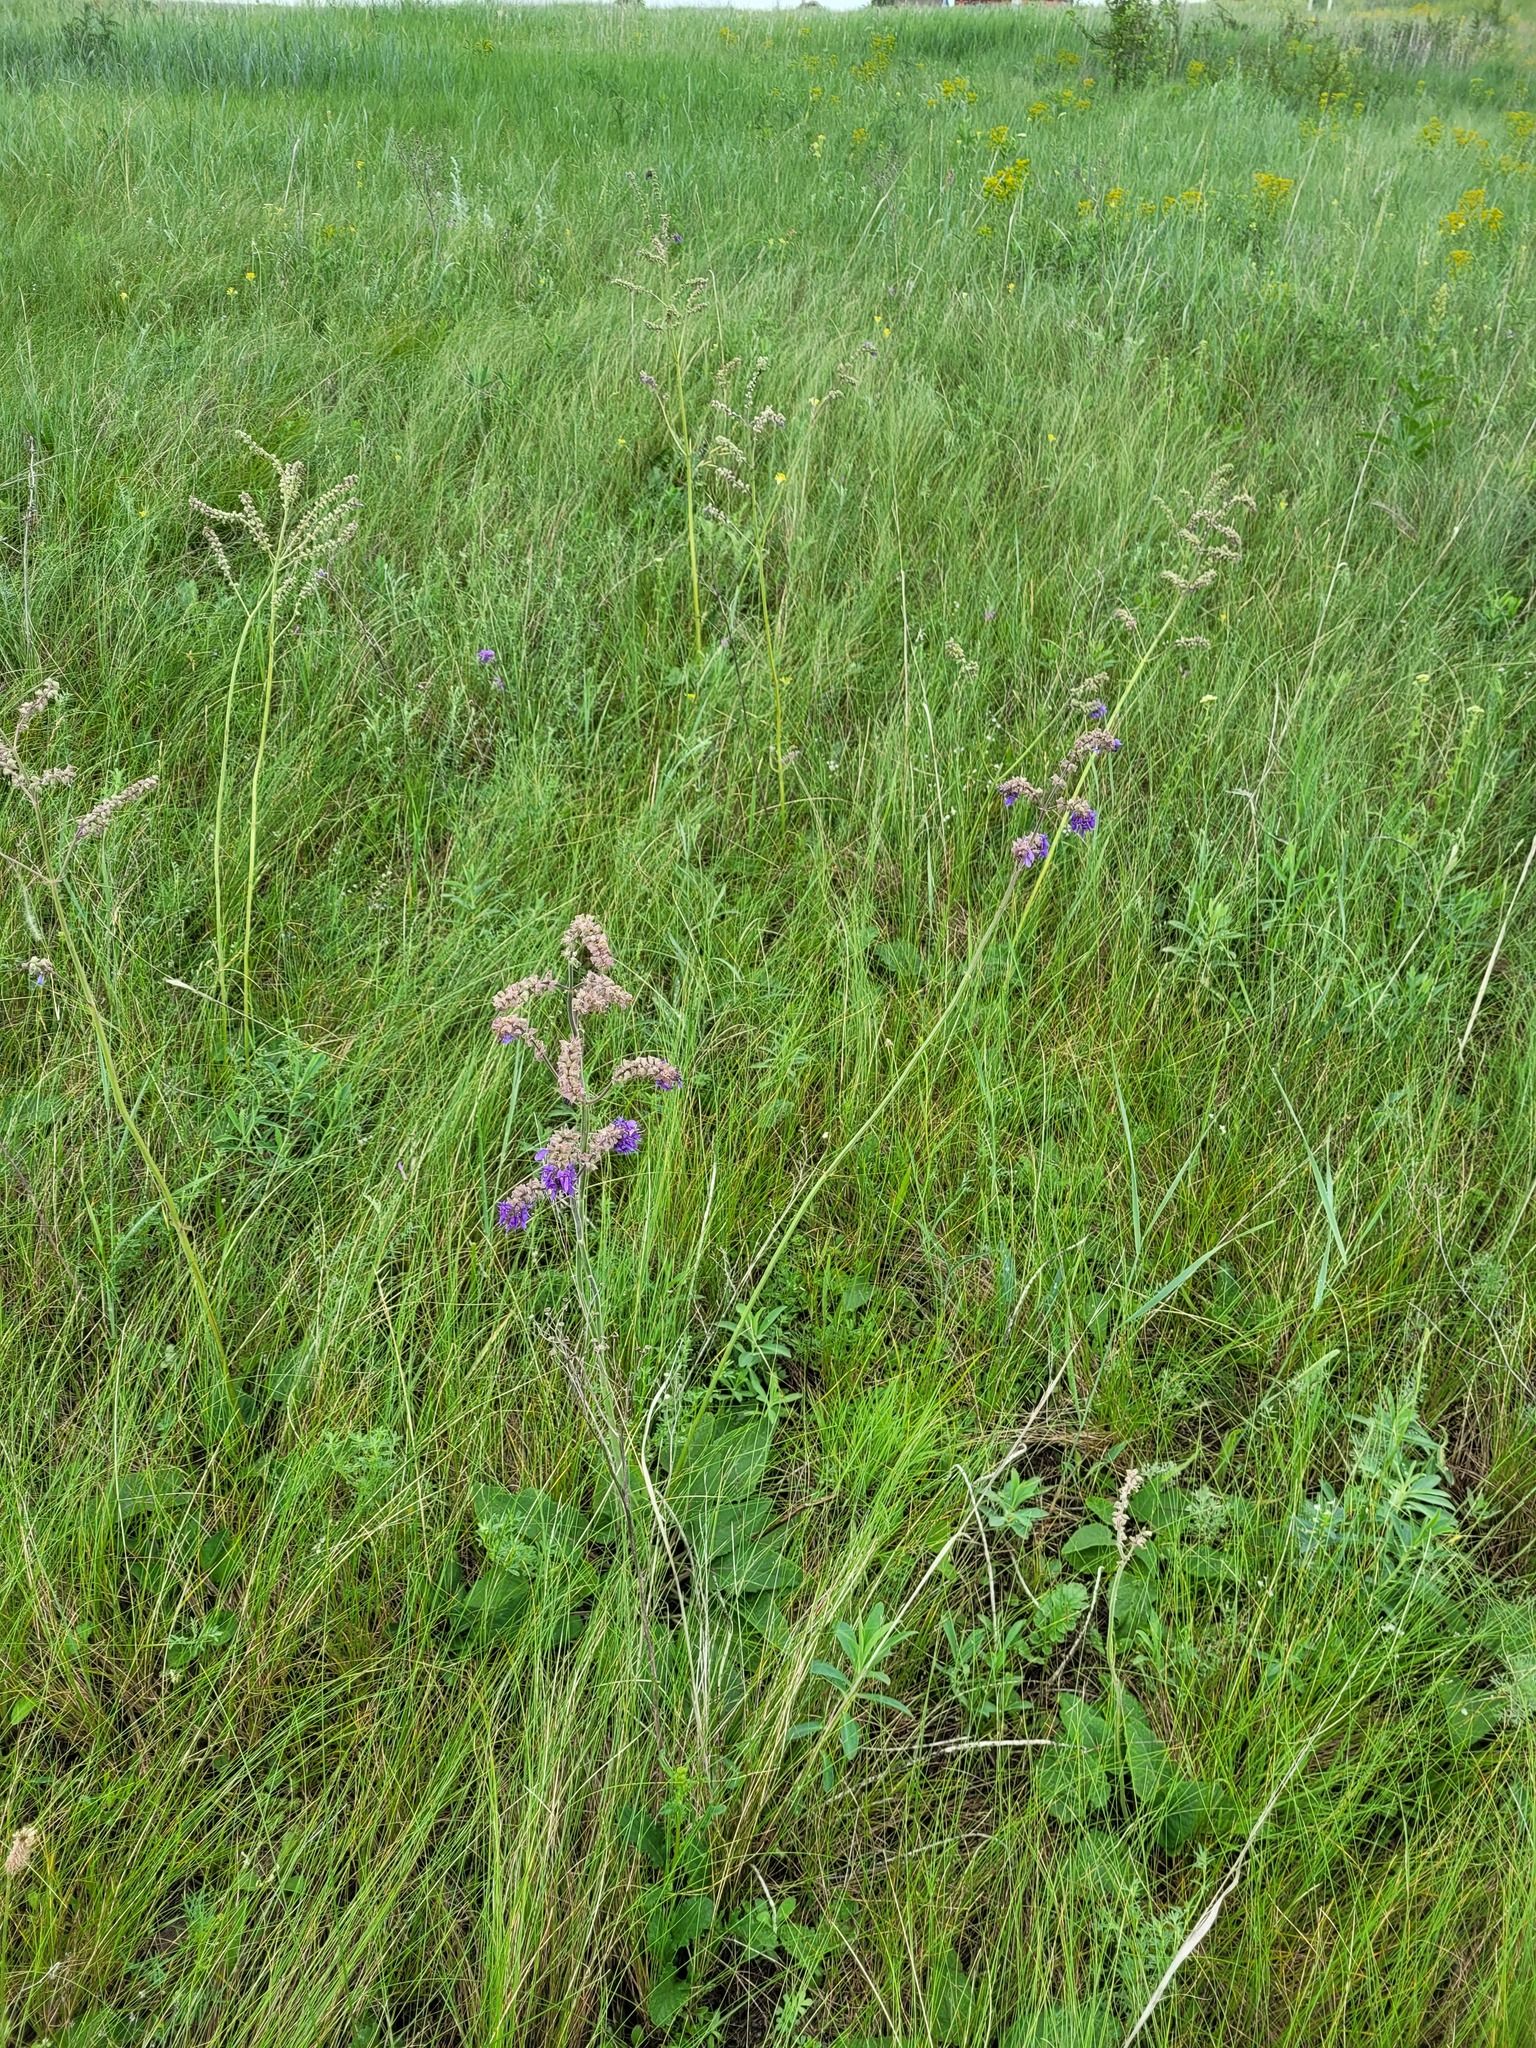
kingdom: Plantae
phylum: Tracheophyta
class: Magnoliopsida
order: Lamiales
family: Lamiaceae
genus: Salvia
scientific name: Salvia nutans
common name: Nodding sage
